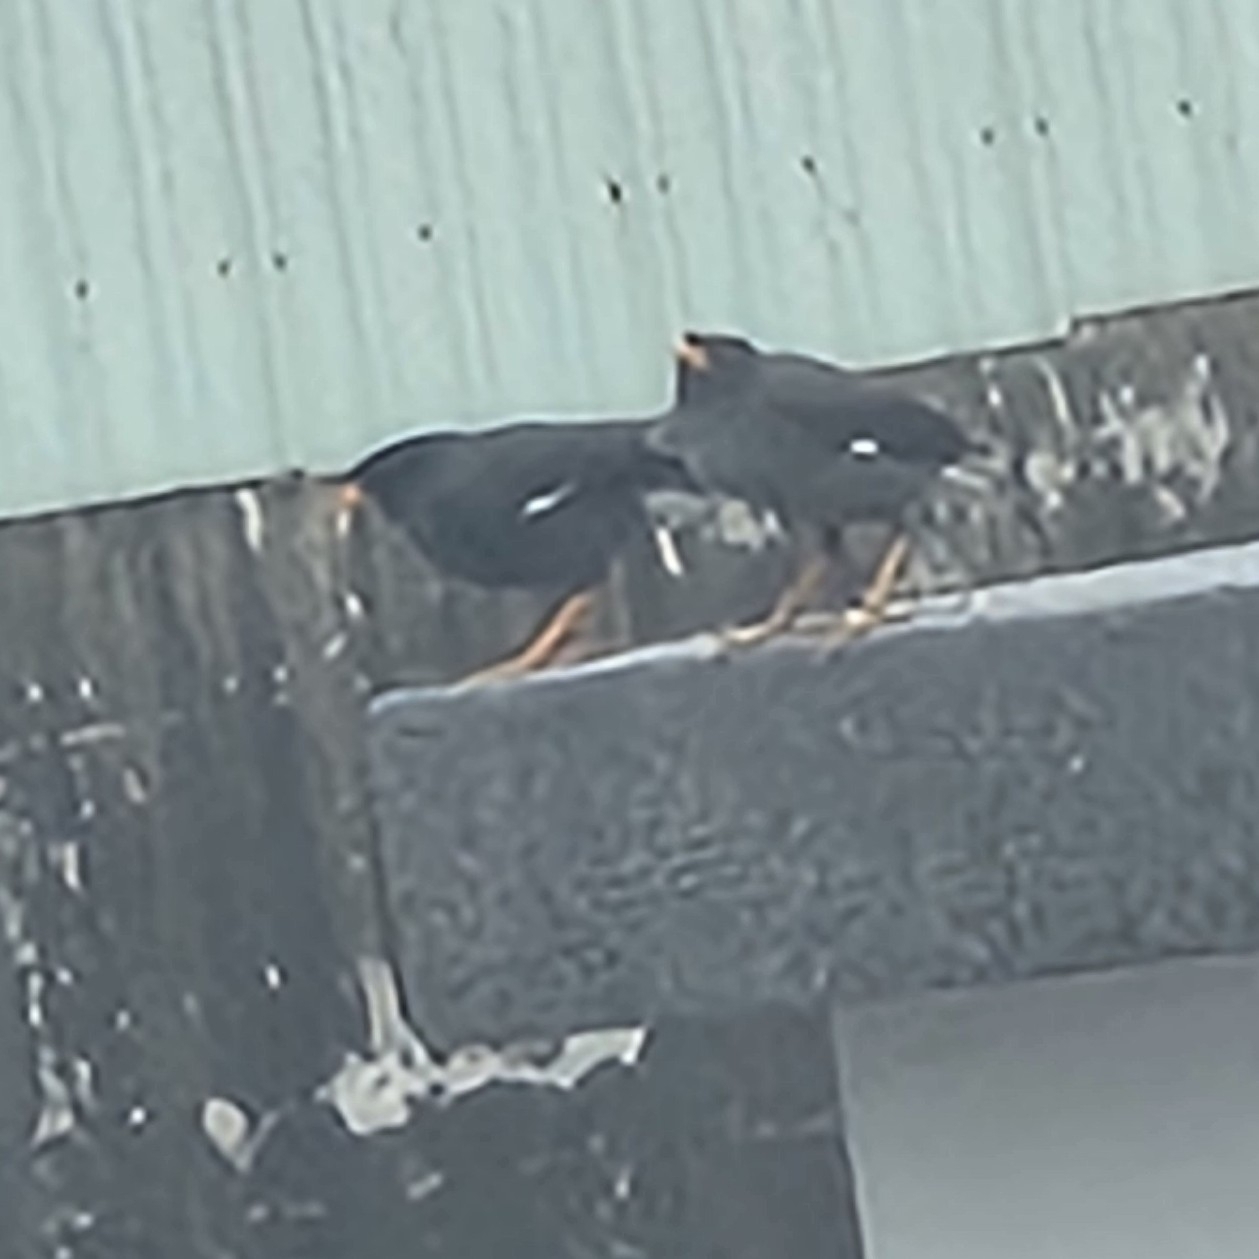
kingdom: Animalia
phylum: Chordata
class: Aves
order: Passeriformes
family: Sturnidae
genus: Acridotheres
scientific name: Acridotheres javanicus
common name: Javan myna
